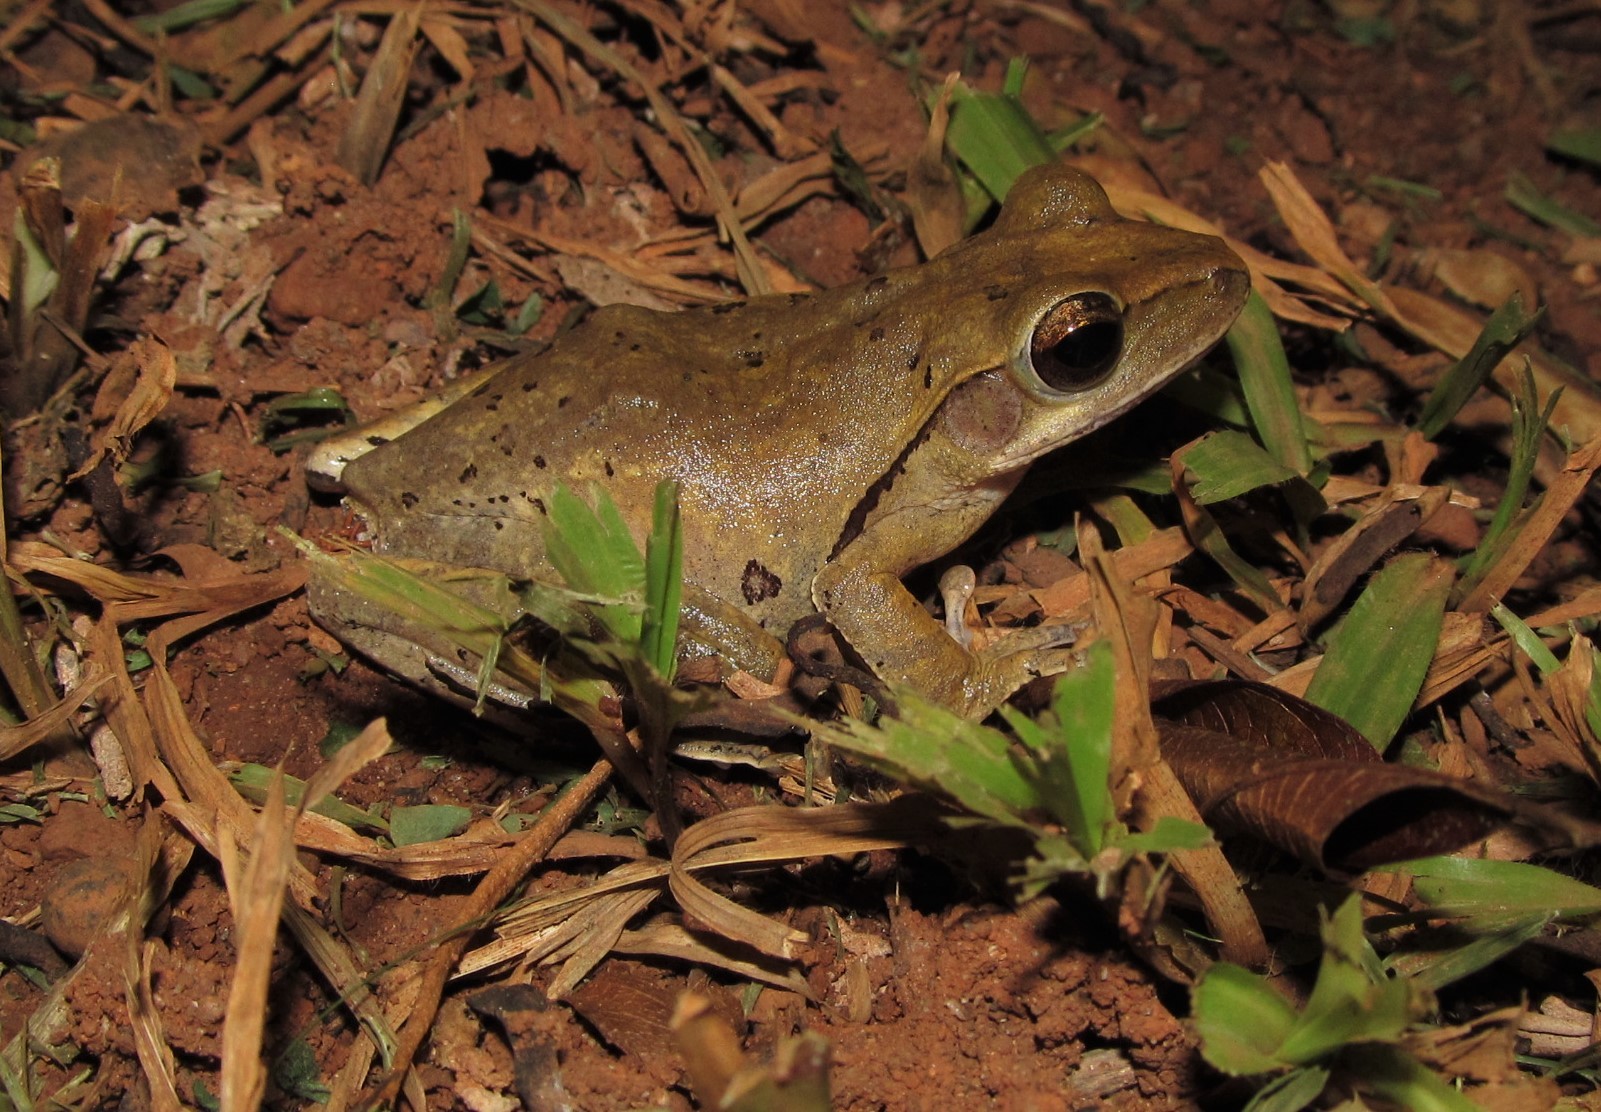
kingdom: Animalia
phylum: Chordata
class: Amphibia
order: Anura
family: Rhacophoridae
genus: Polypedates
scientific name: Polypedates leucomystax
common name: Common tree frog/four-lined tree frog
